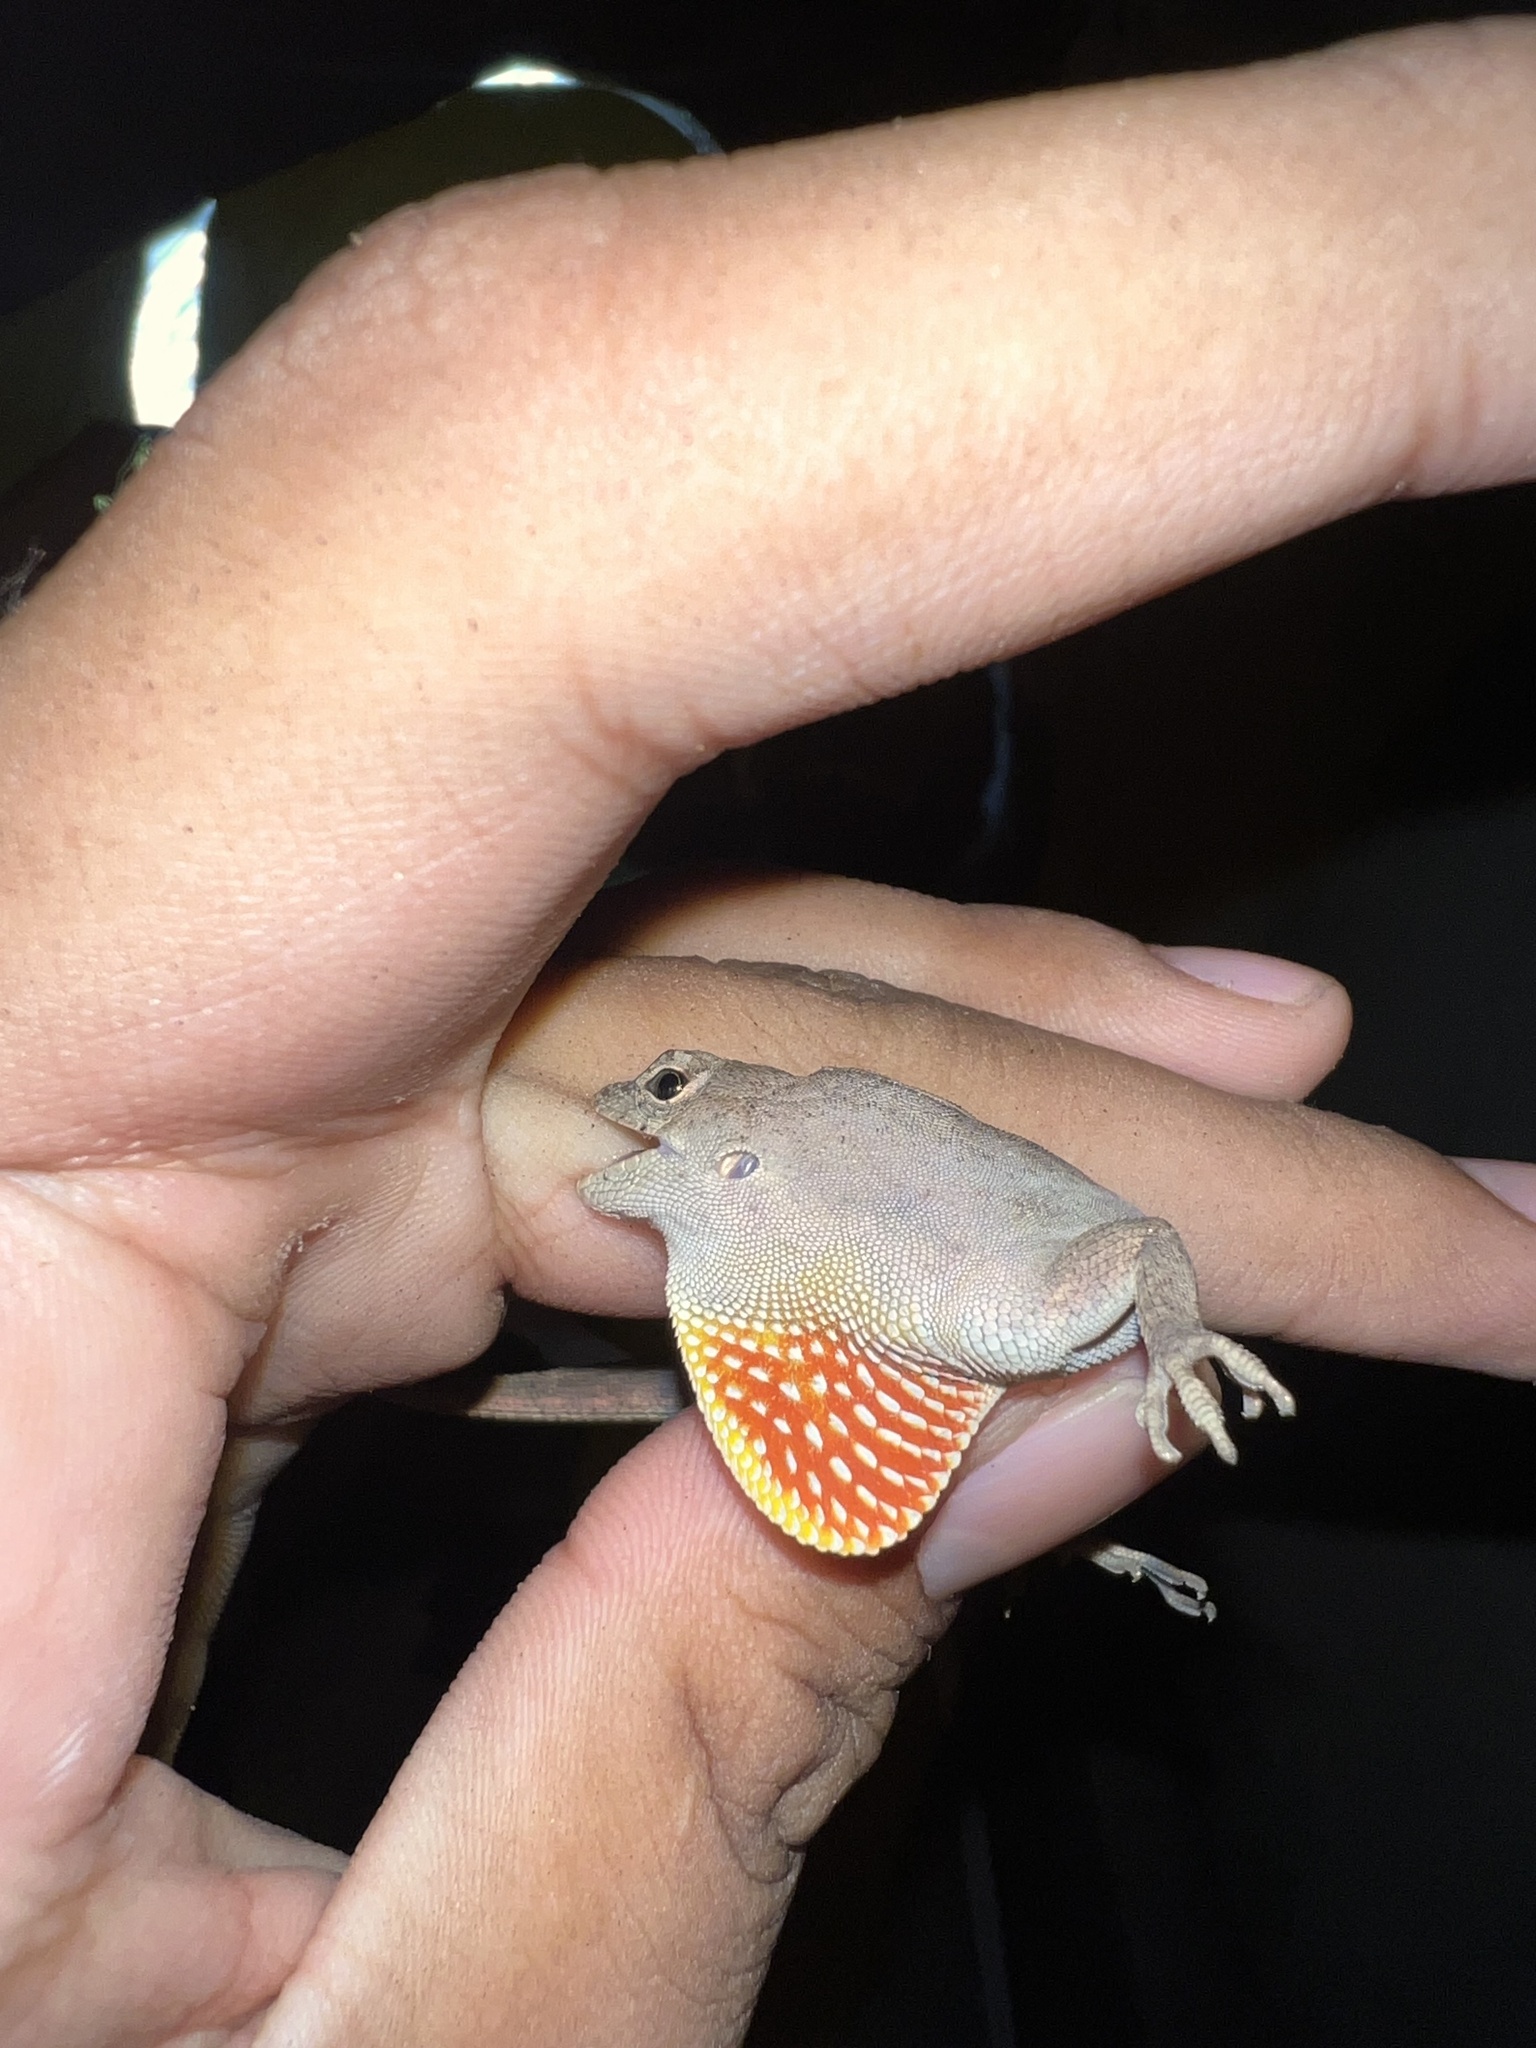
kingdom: Animalia
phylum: Chordata
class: Squamata
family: Dactyloidae
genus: Anolis
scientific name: Anolis sagrei
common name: Brown anole
